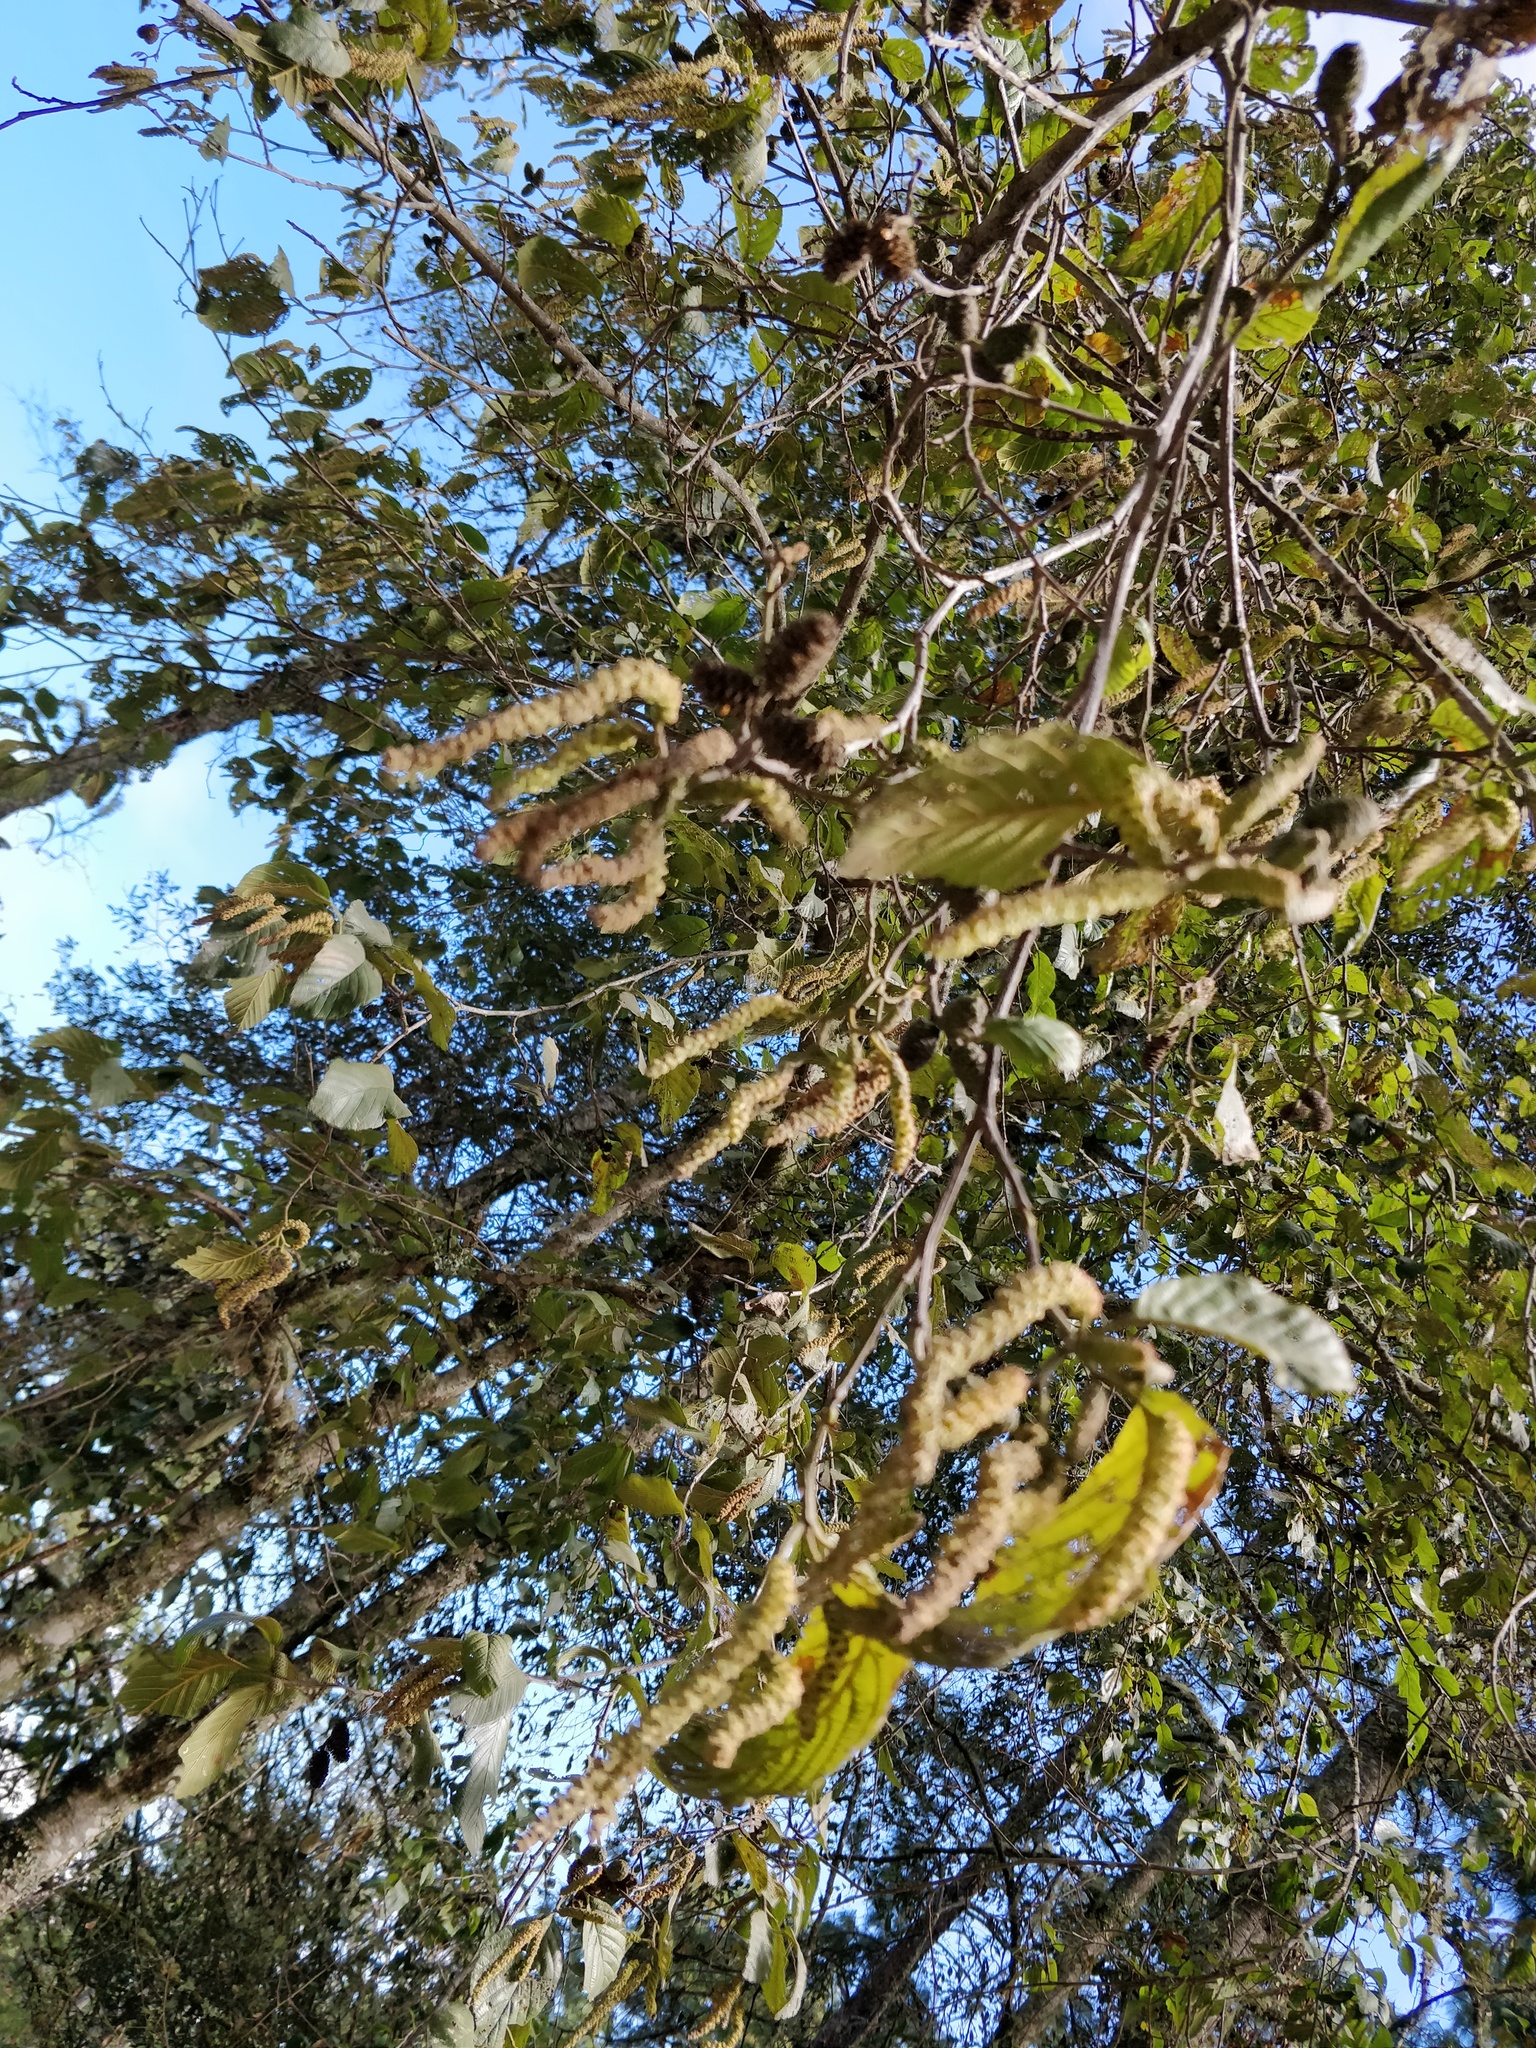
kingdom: Plantae
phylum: Tracheophyta
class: Magnoliopsida
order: Fagales
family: Betulaceae
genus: Alnus
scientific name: Alnus acuminata
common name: Alder
